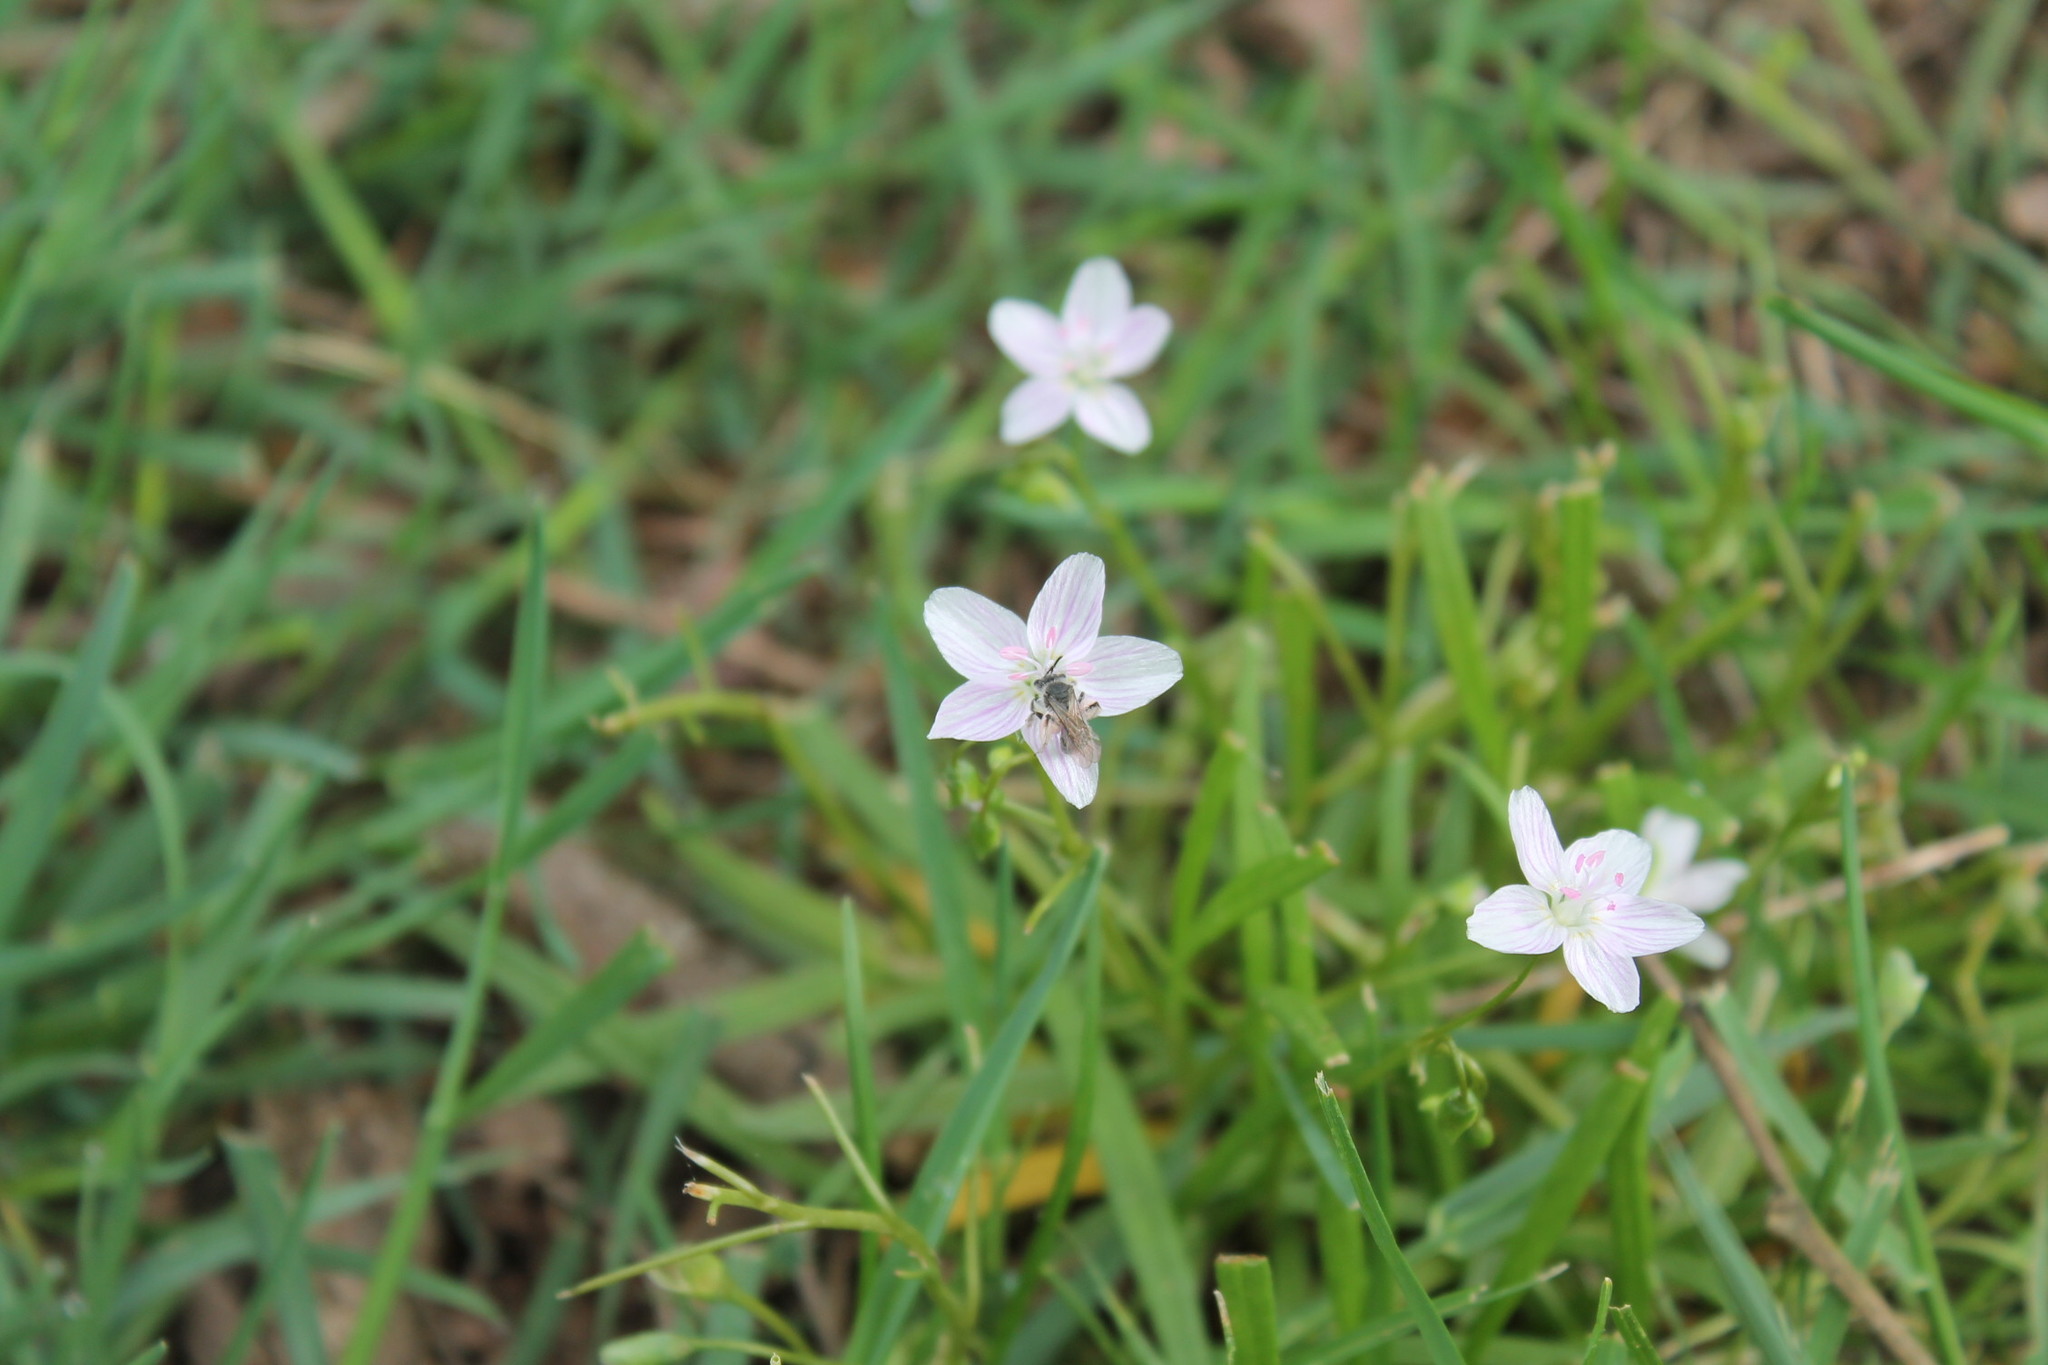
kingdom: Animalia
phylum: Arthropoda
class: Insecta
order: Hymenoptera
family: Andrenidae
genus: Andrena
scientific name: Andrena erigeniae
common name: Spring beauty miner
